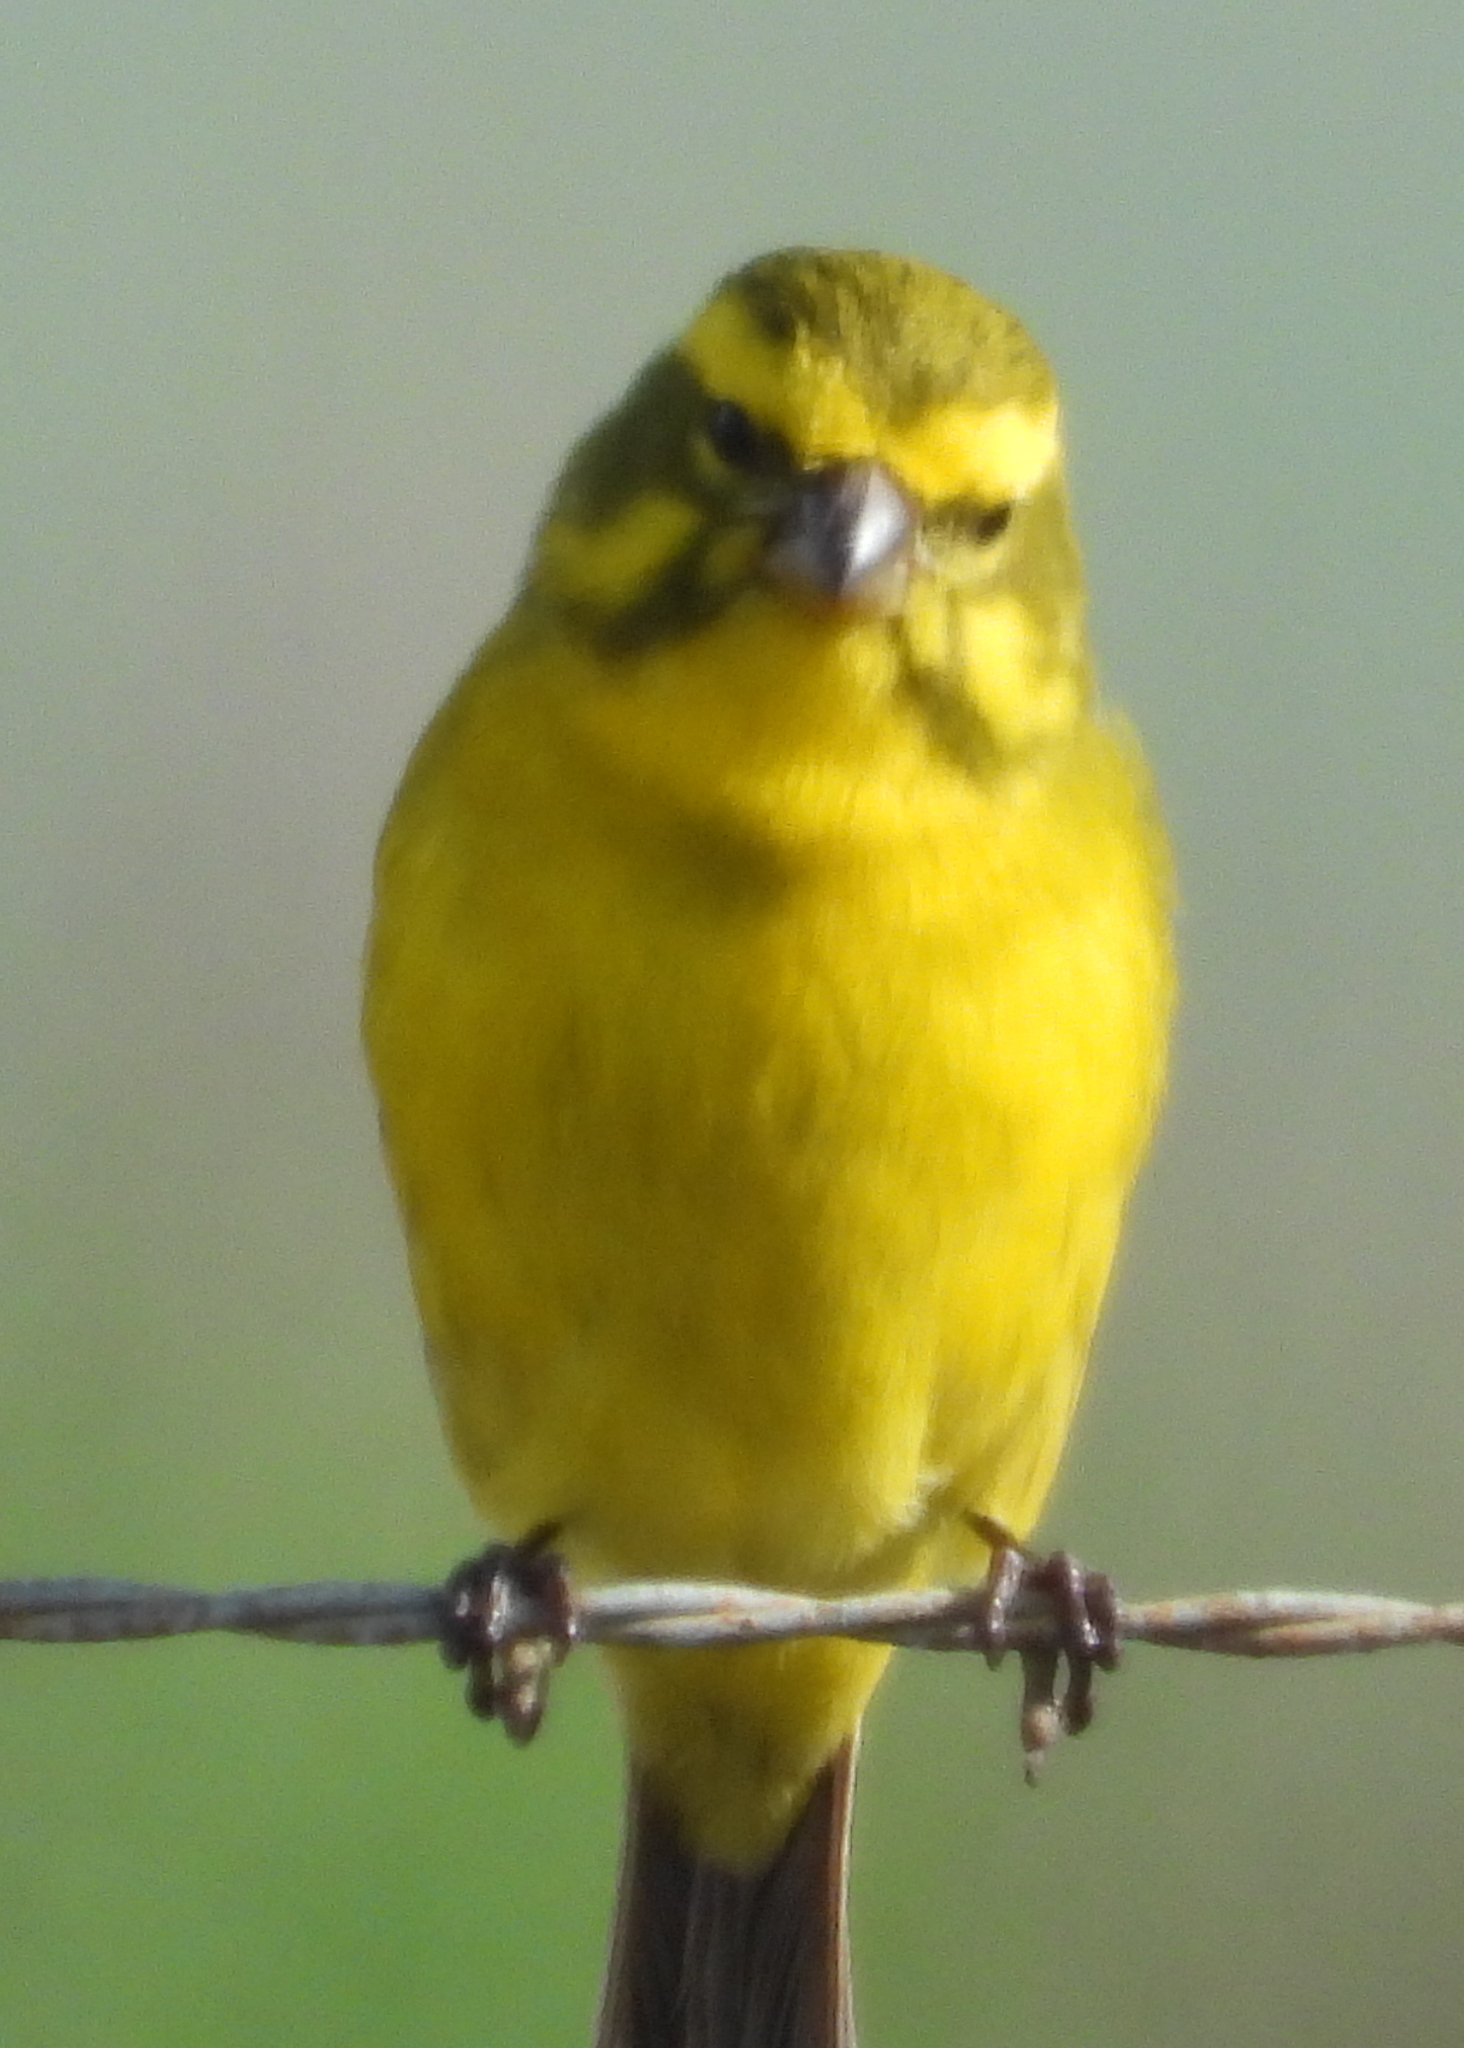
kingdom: Animalia
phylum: Chordata
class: Aves
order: Passeriformes
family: Fringillidae
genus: Crithagra
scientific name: Crithagra flaviventris
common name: Yellow canary
